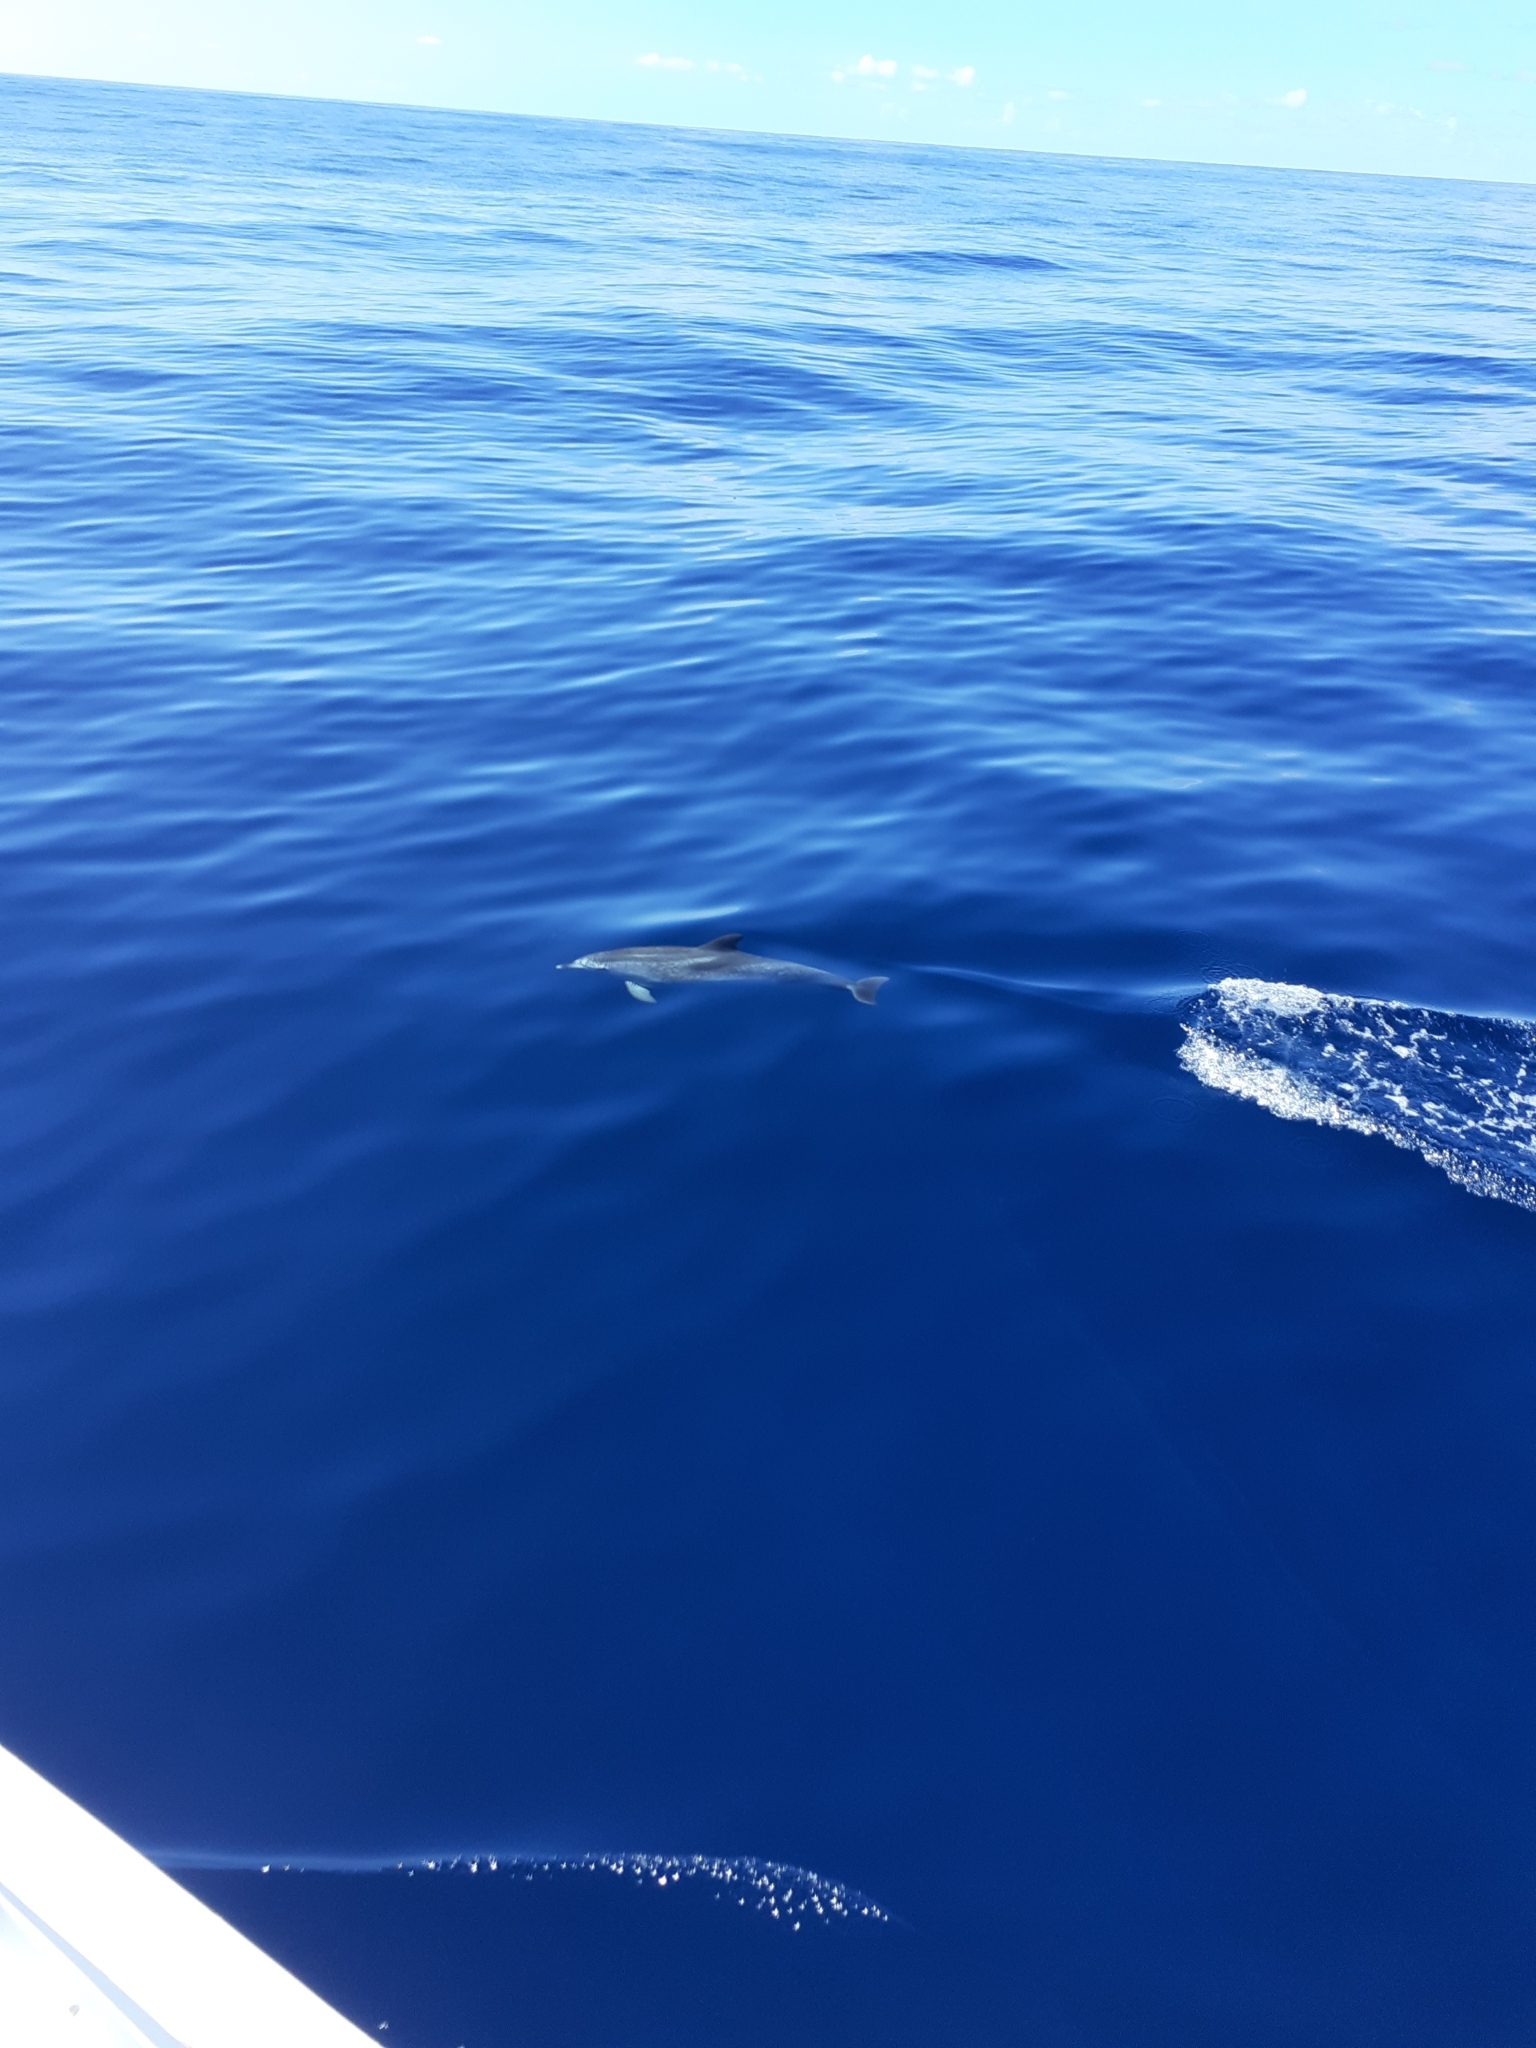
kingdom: Animalia
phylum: Chordata
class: Mammalia
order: Cetacea
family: Delphinidae
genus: Stenella
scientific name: Stenella frontalis
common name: Atlantic spotted dolphin
